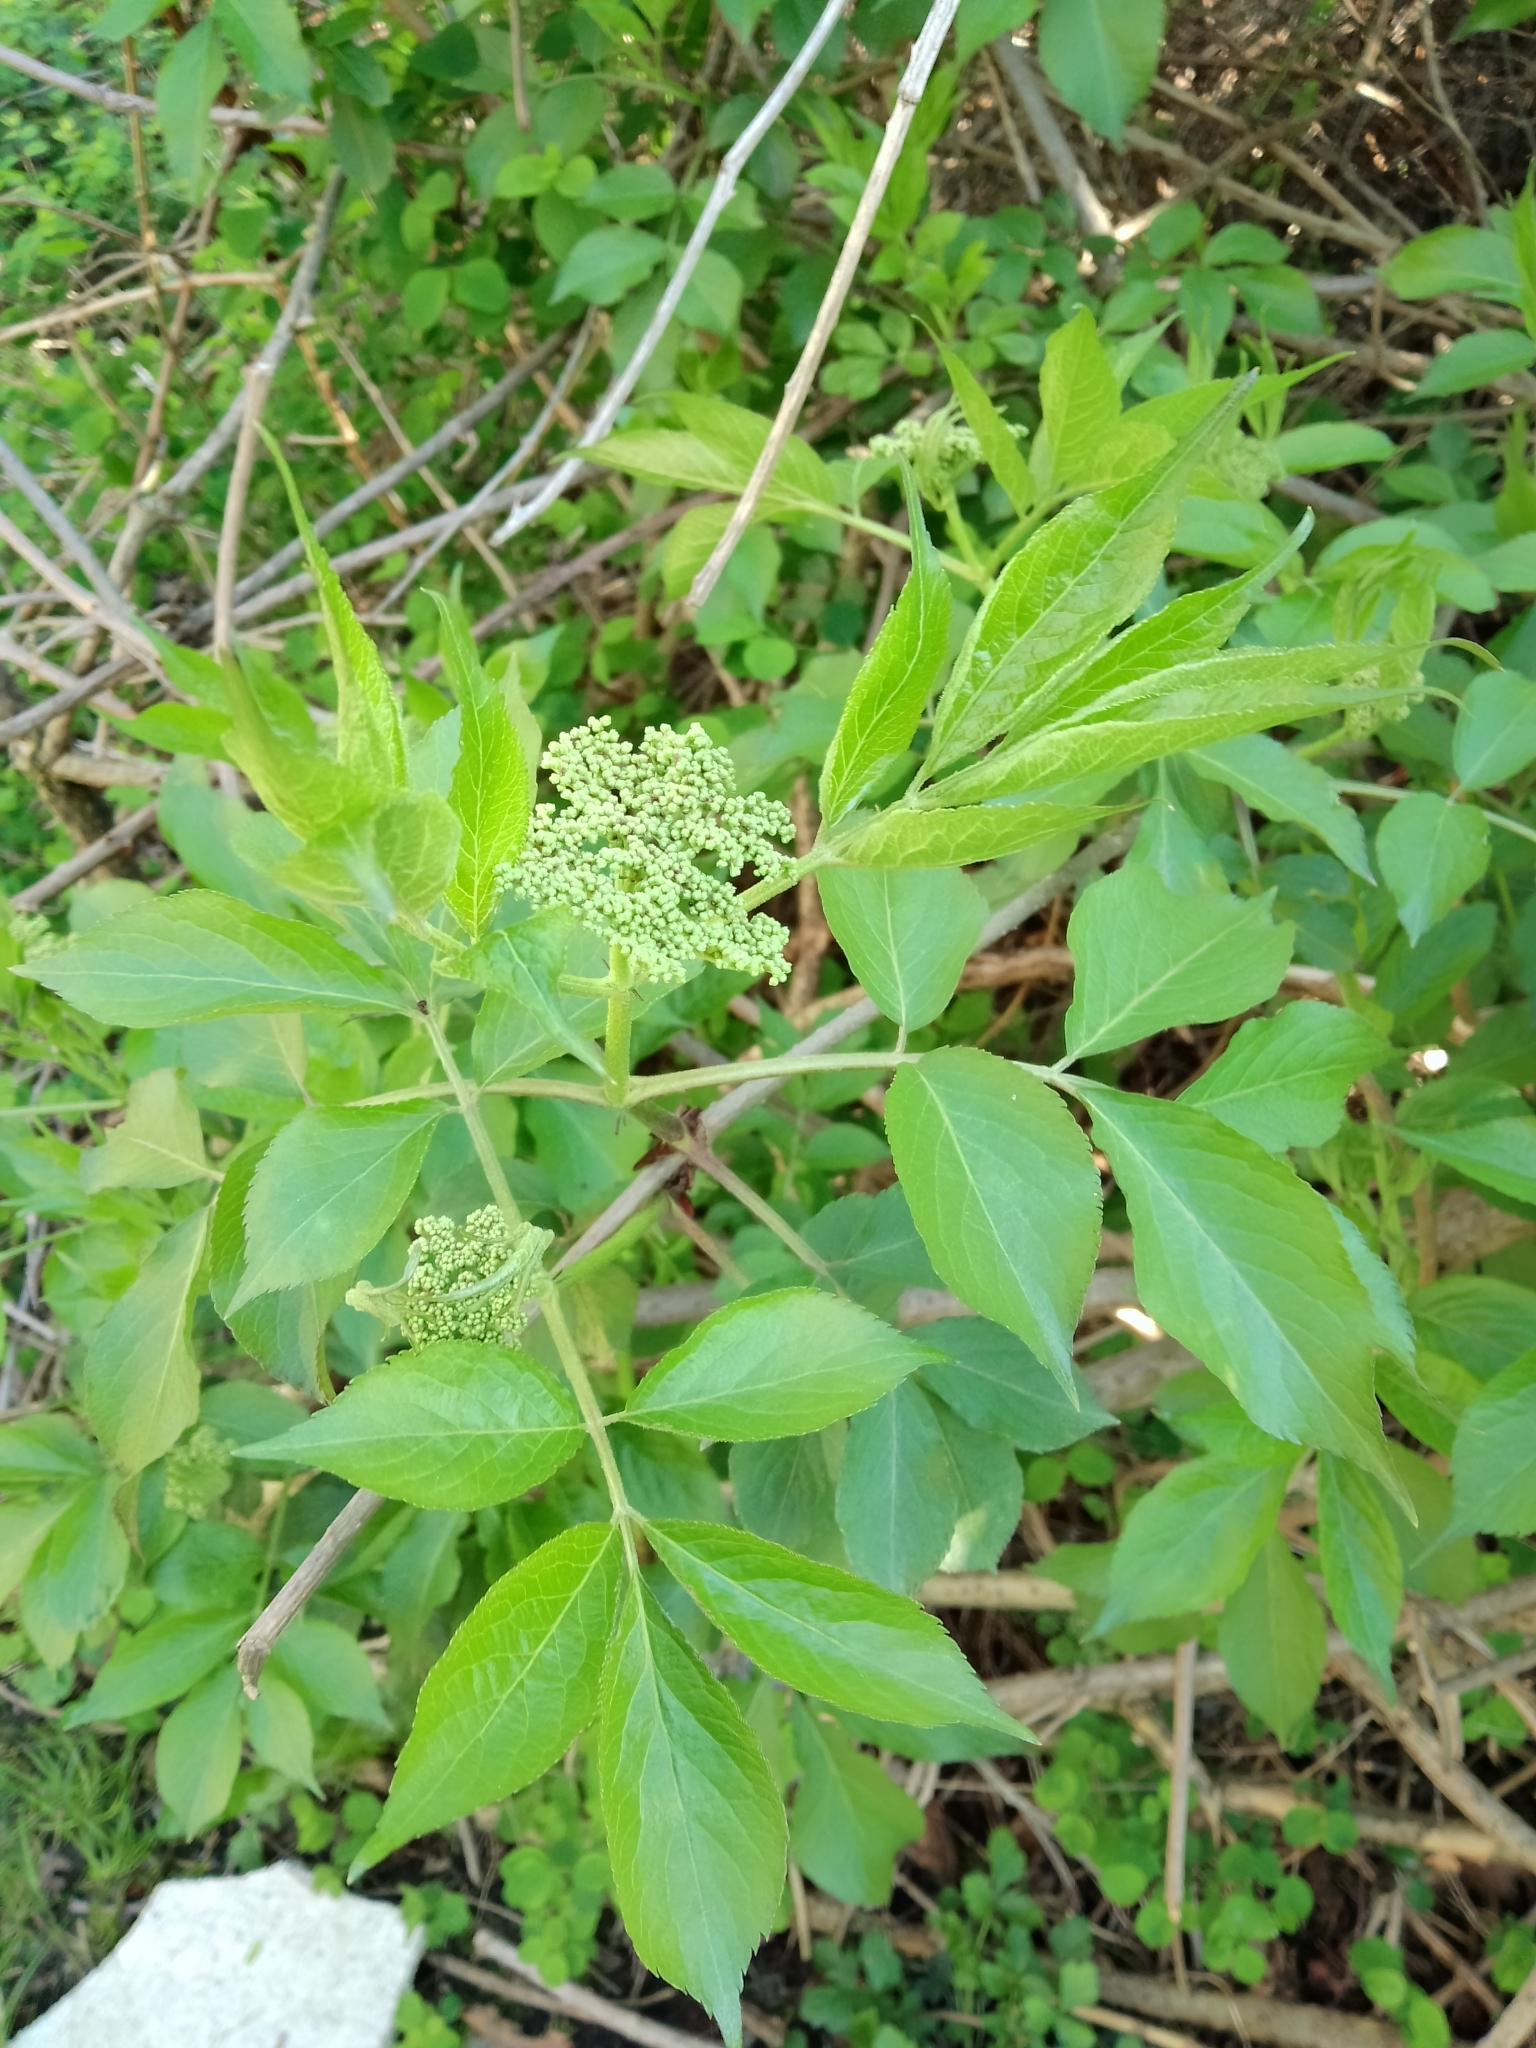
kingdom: Plantae
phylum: Tracheophyta
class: Magnoliopsida
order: Dipsacales
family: Viburnaceae
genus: Sambucus
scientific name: Sambucus nigra
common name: Elder
